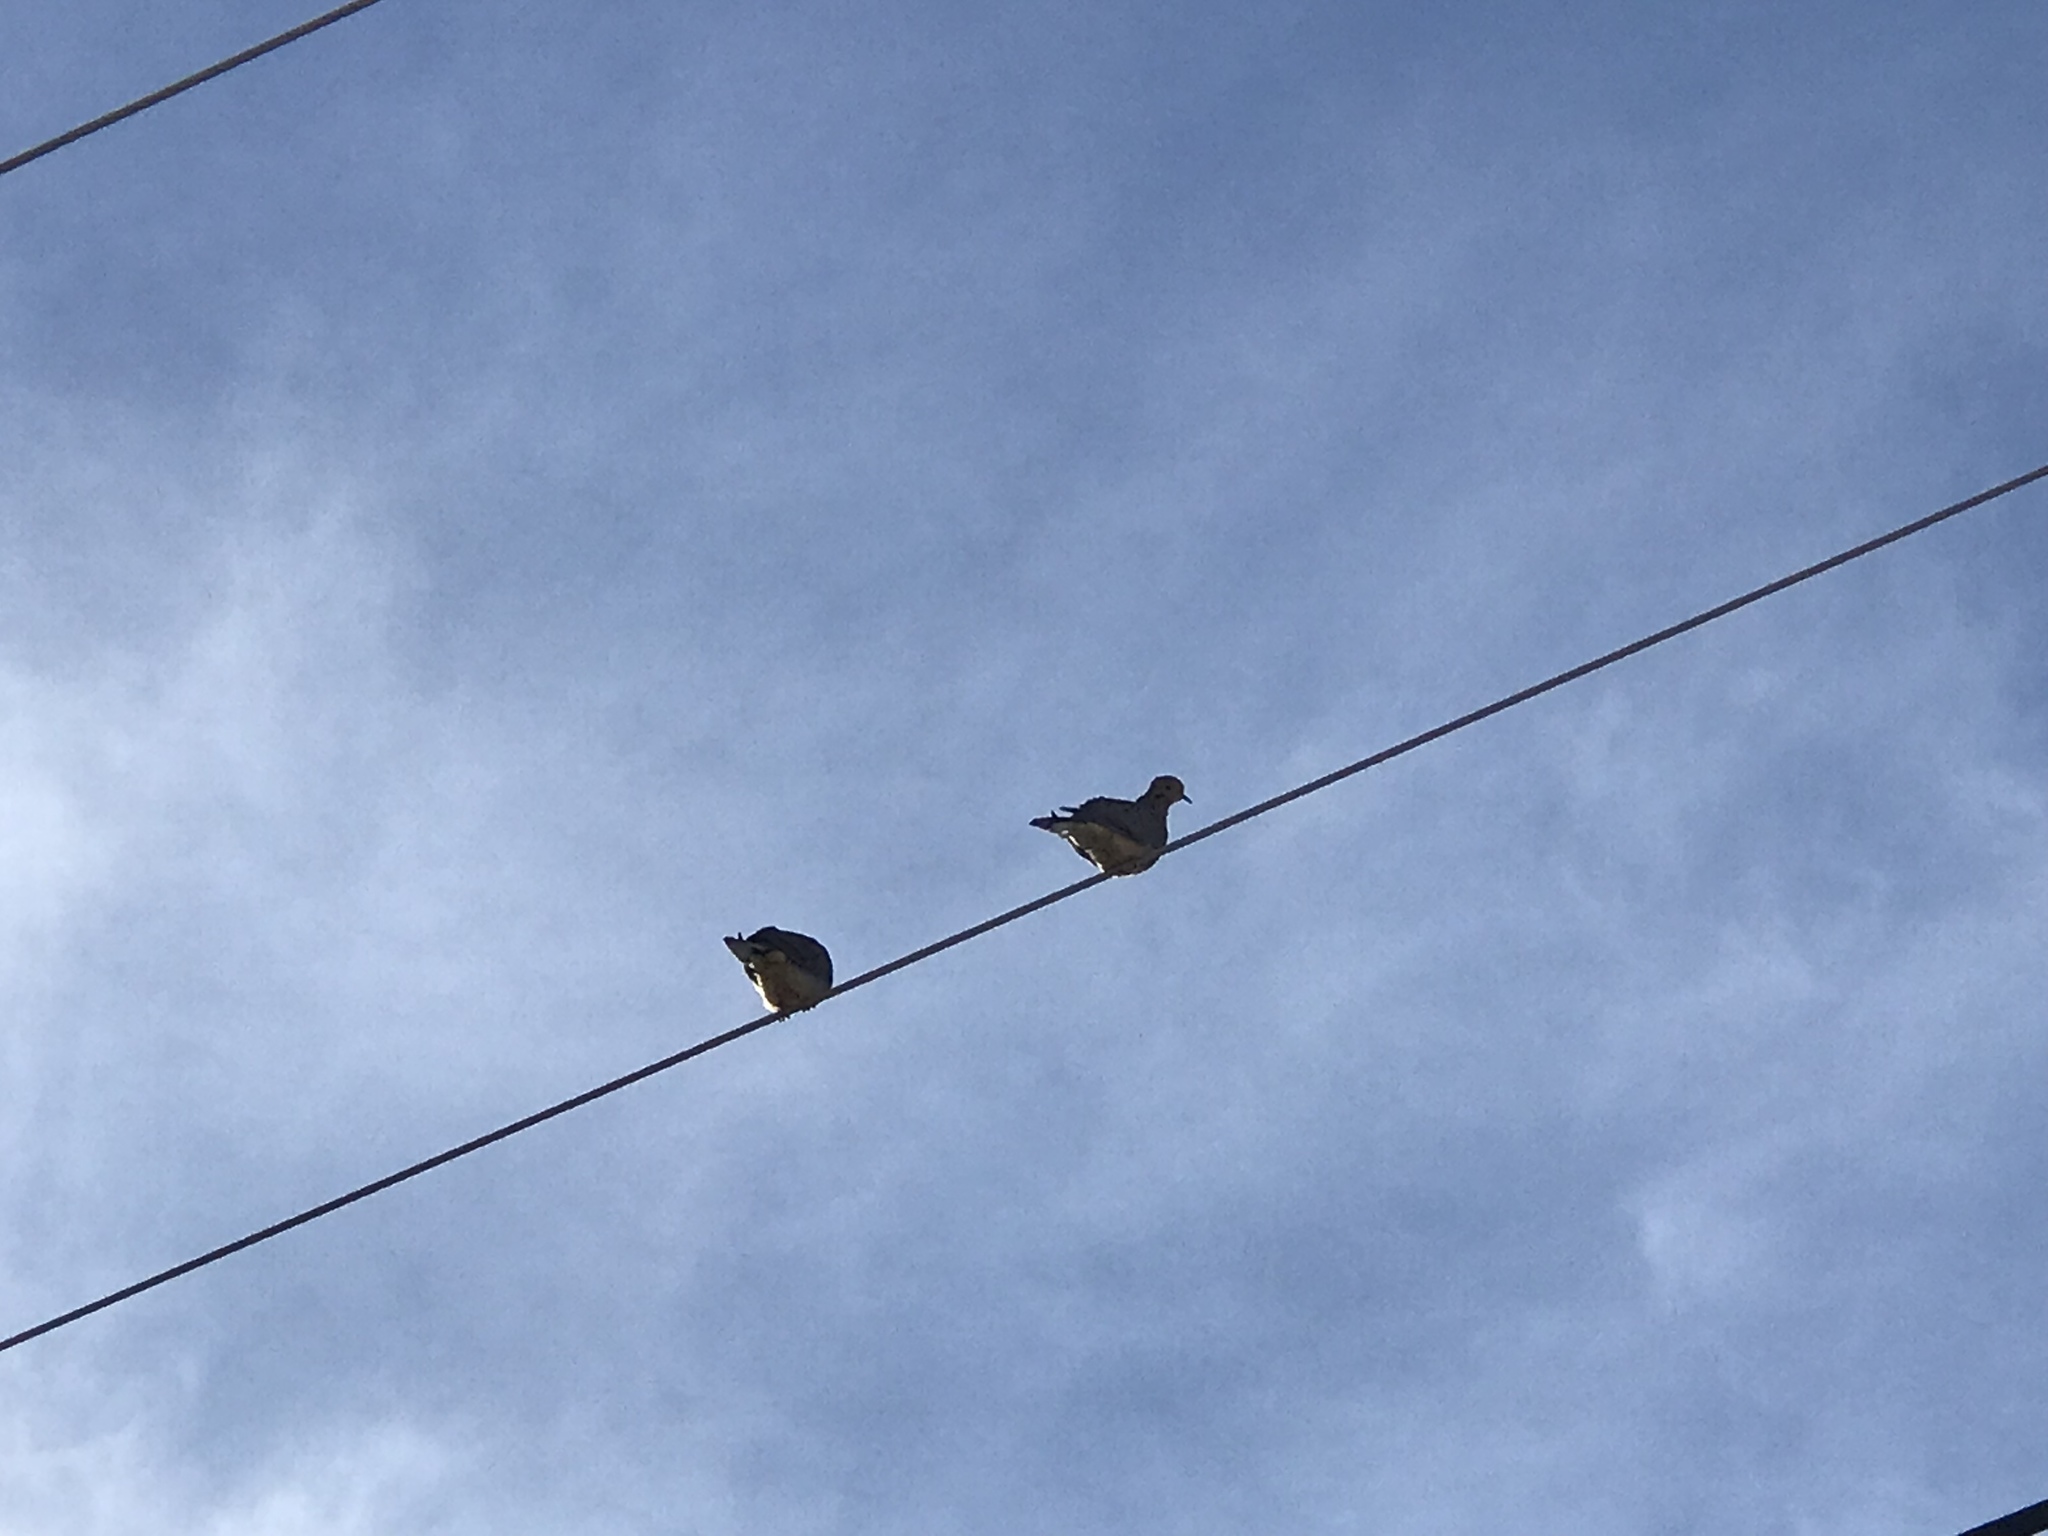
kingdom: Animalia
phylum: Chordata
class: Aves
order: Columbiformes
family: Columbidae
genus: Zenaida
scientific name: Zenaida macroura
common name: Mourning dove
